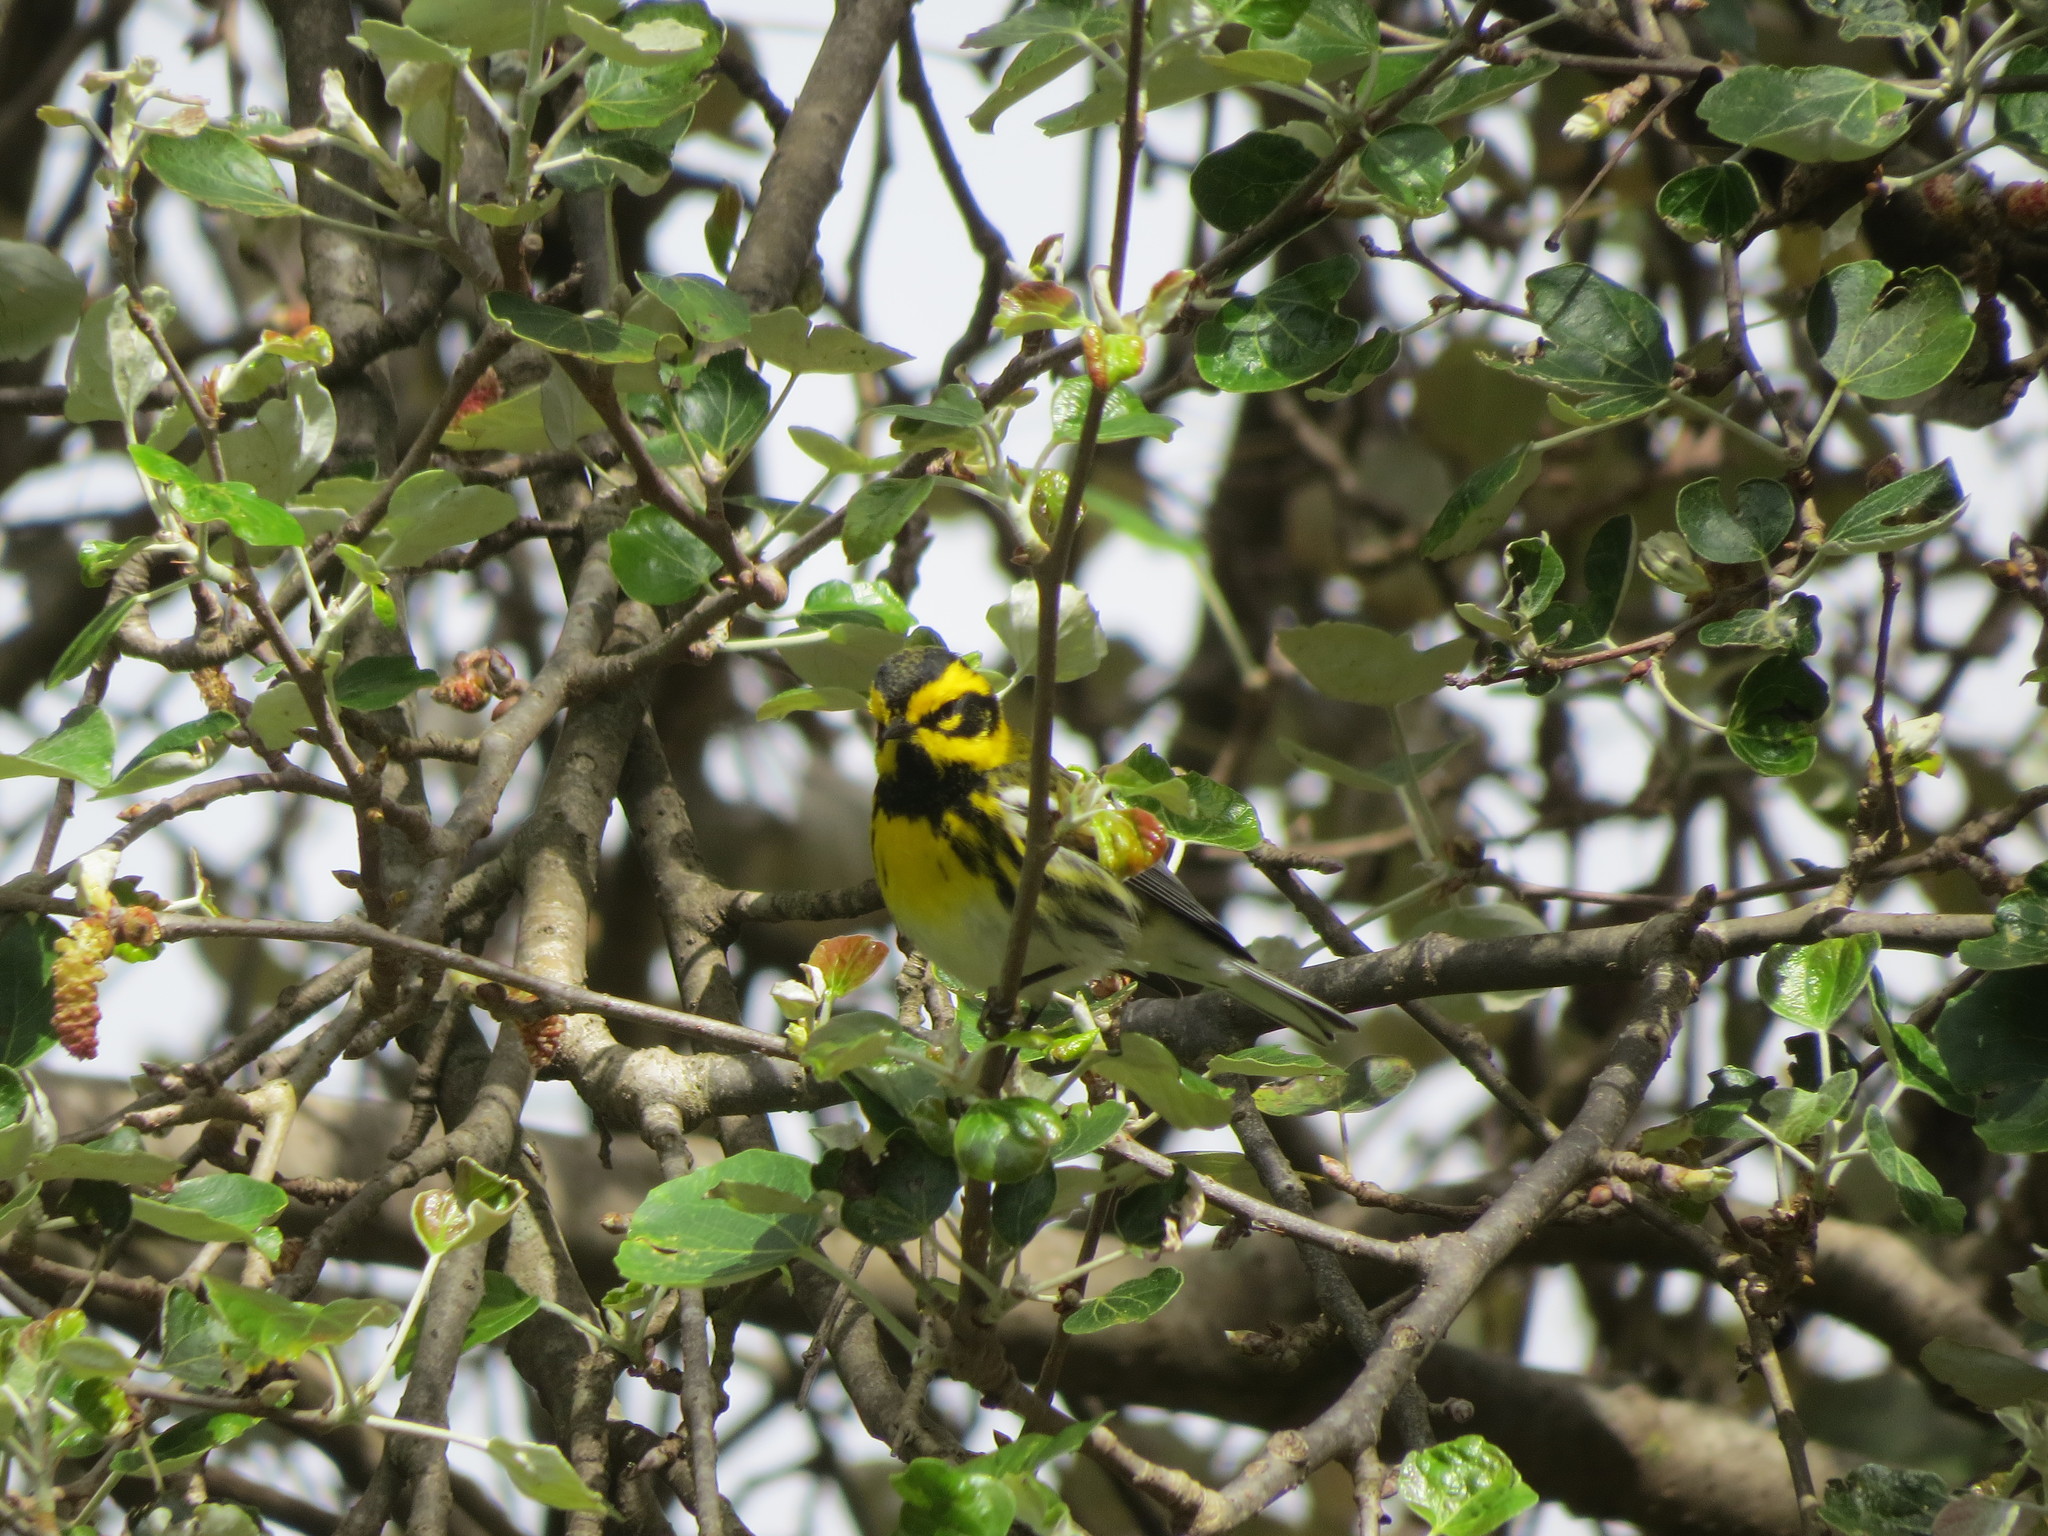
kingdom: Animalia
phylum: Chordata
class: Aves
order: Passeriformes
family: Parulidae
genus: Setophaga
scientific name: Setophaga townsendi
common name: Townsend's warbler
